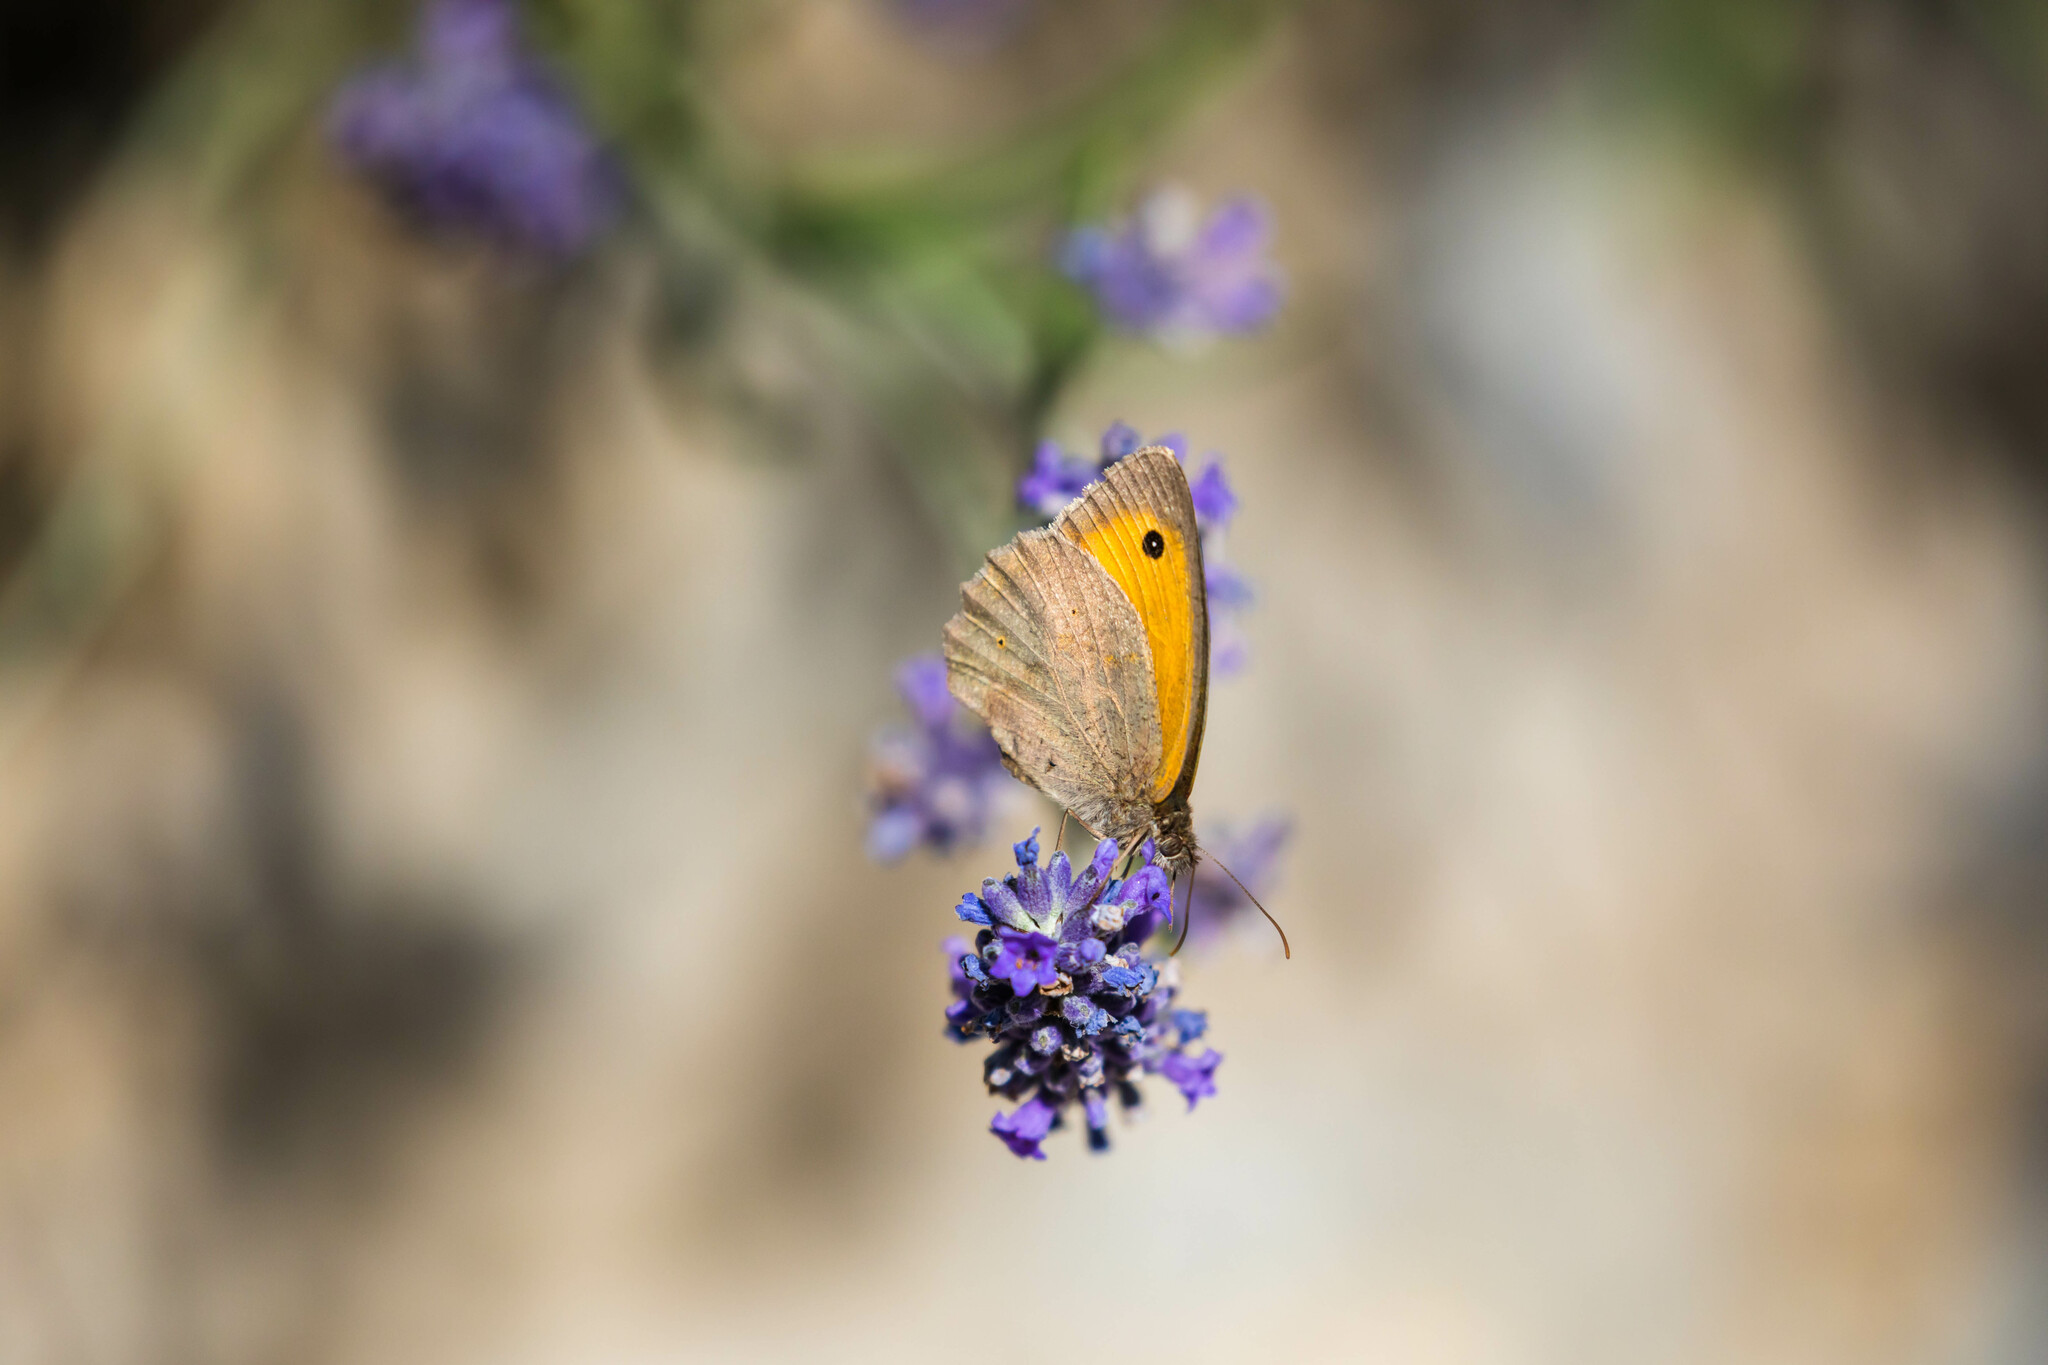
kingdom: Animalia
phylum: Arthropoda
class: Insecta
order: Lepidoptera
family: Nymphalidae
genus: Maniola
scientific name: Maniola jurtina
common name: Meadow brown
